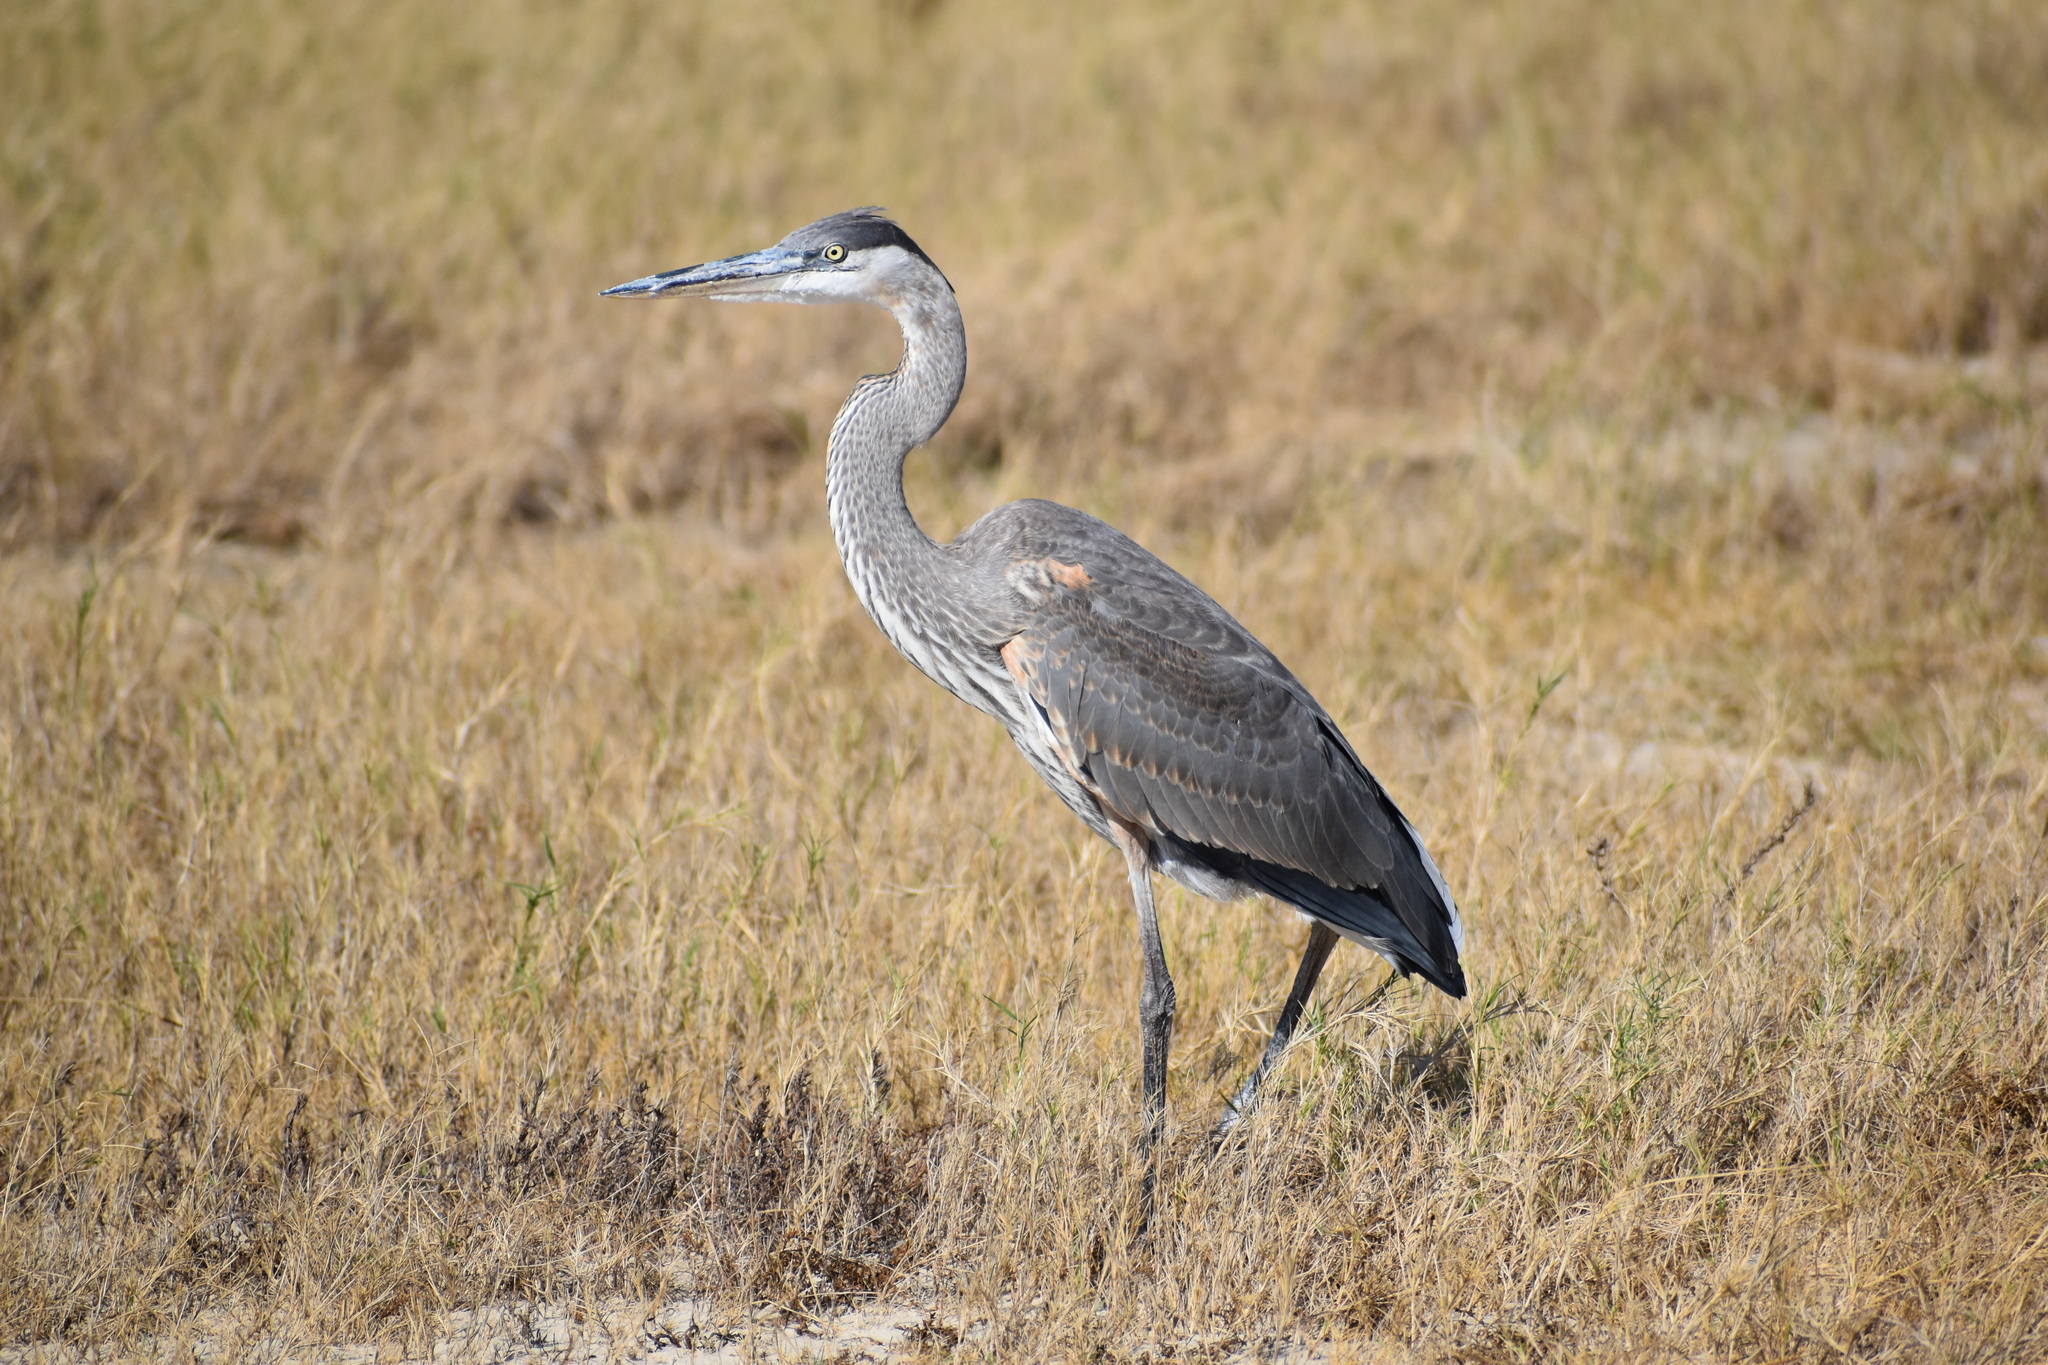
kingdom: Animalia
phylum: Chordata
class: Aves
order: Pelecaniformes
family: Ardeidae
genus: Ardea
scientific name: Ardea herodias
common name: Great blue heron
